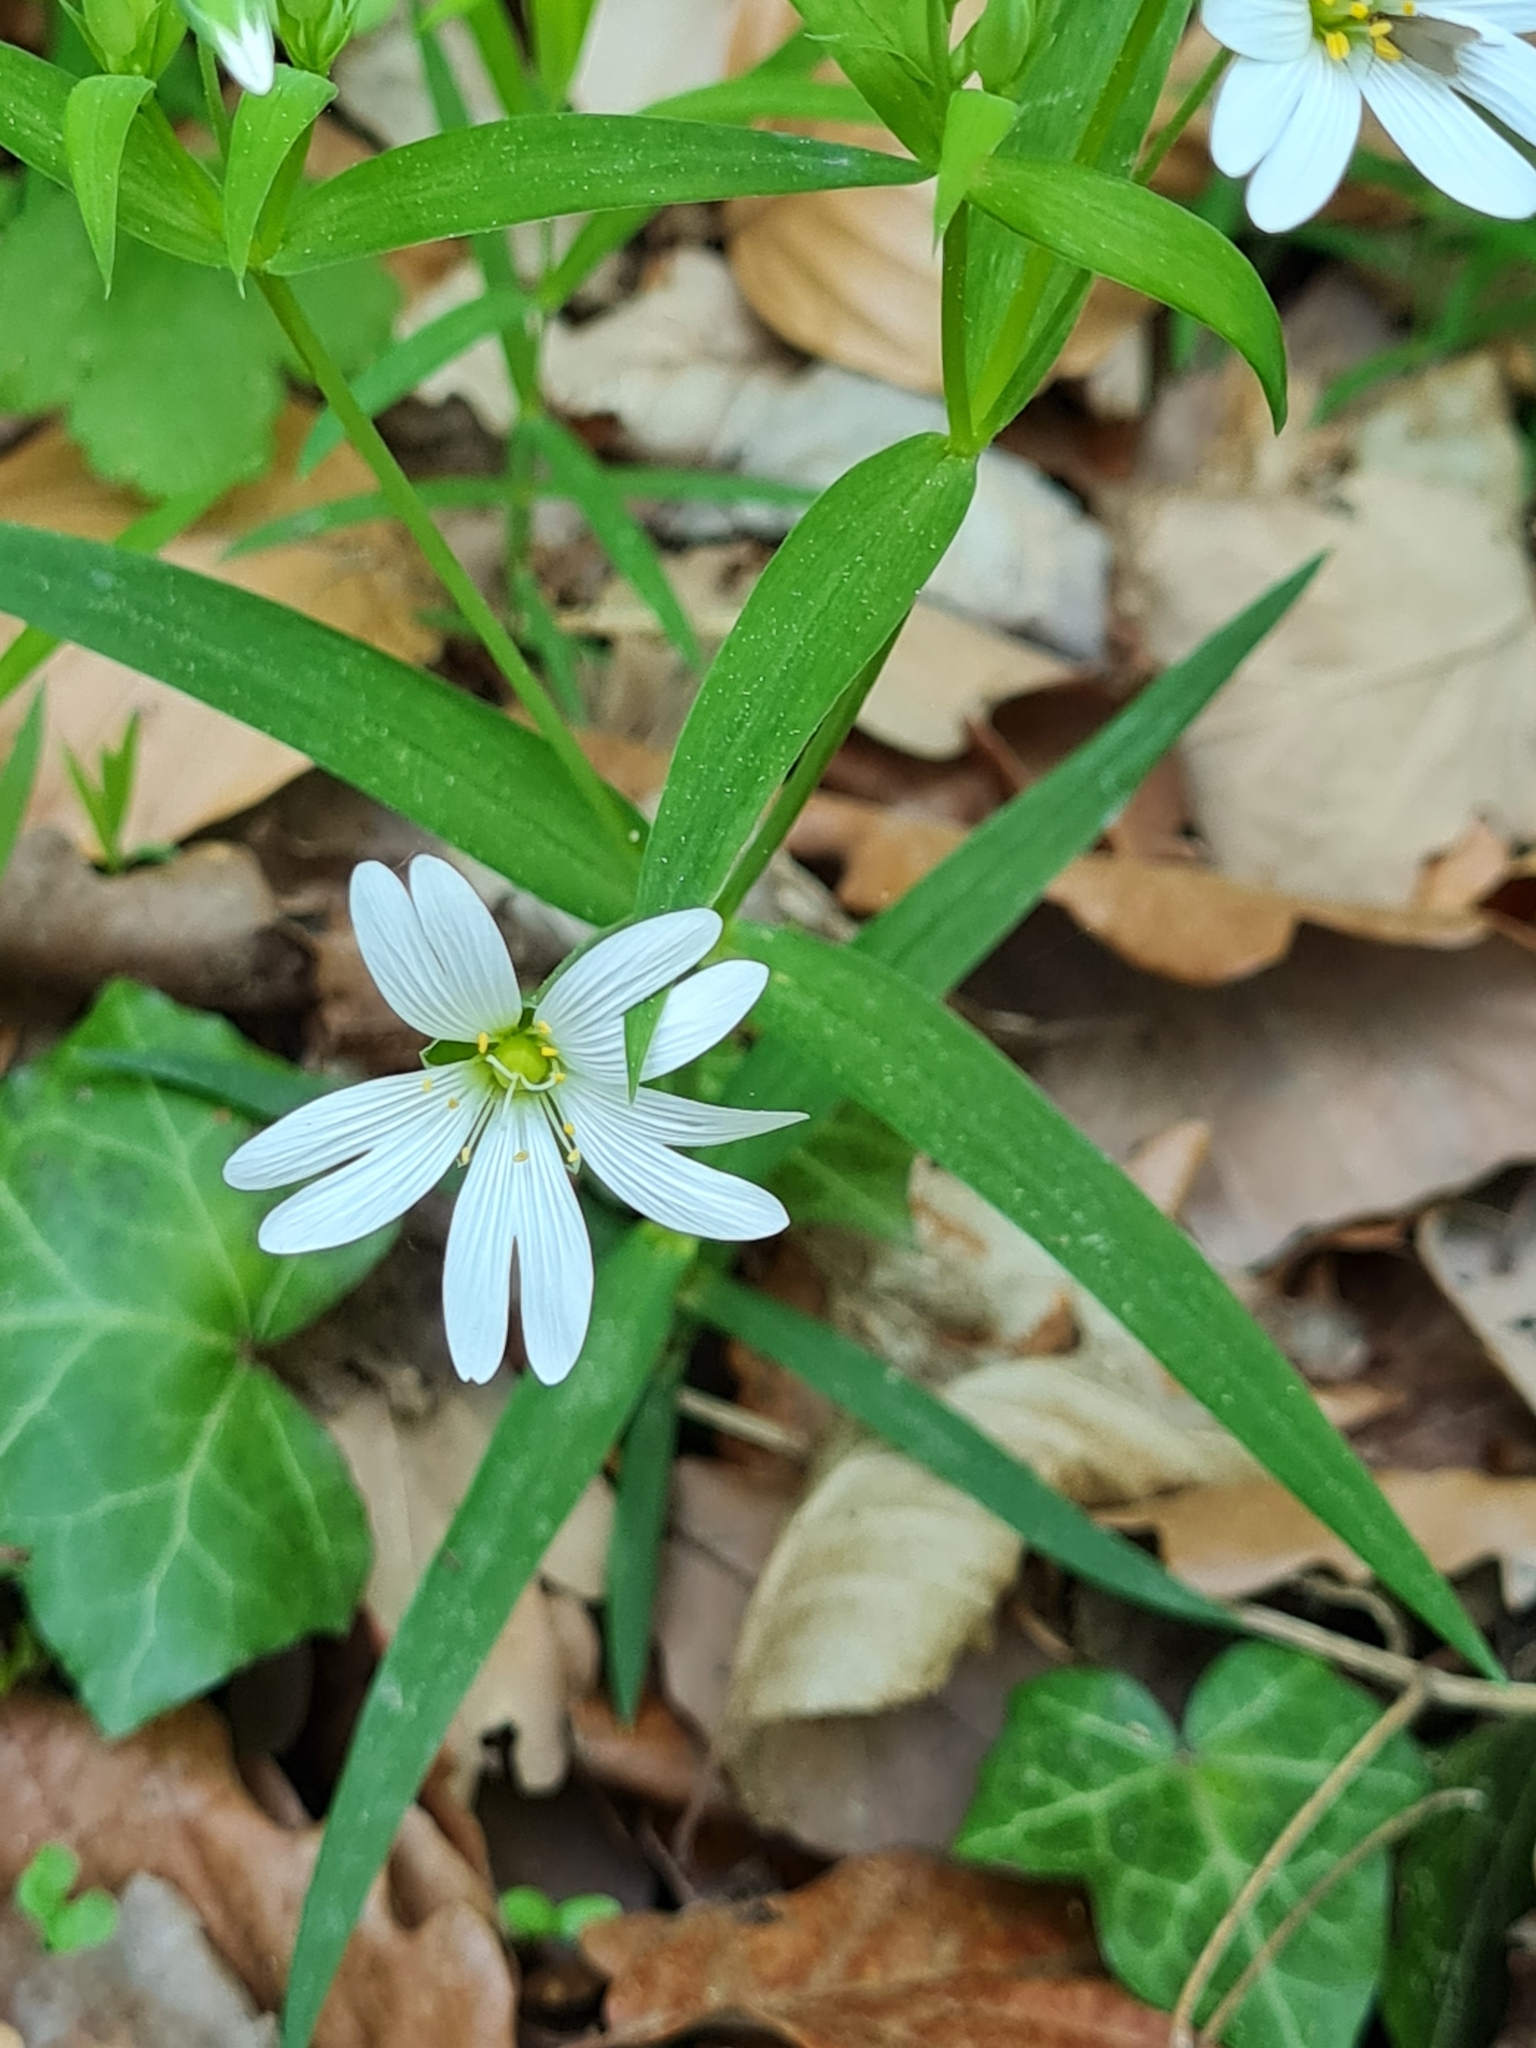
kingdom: Plantae
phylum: Tracheophyta
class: Magnoliopsida
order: Caryophyllales
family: Caryophyllaceae
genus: Rabelera
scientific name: Rabelera holostea
